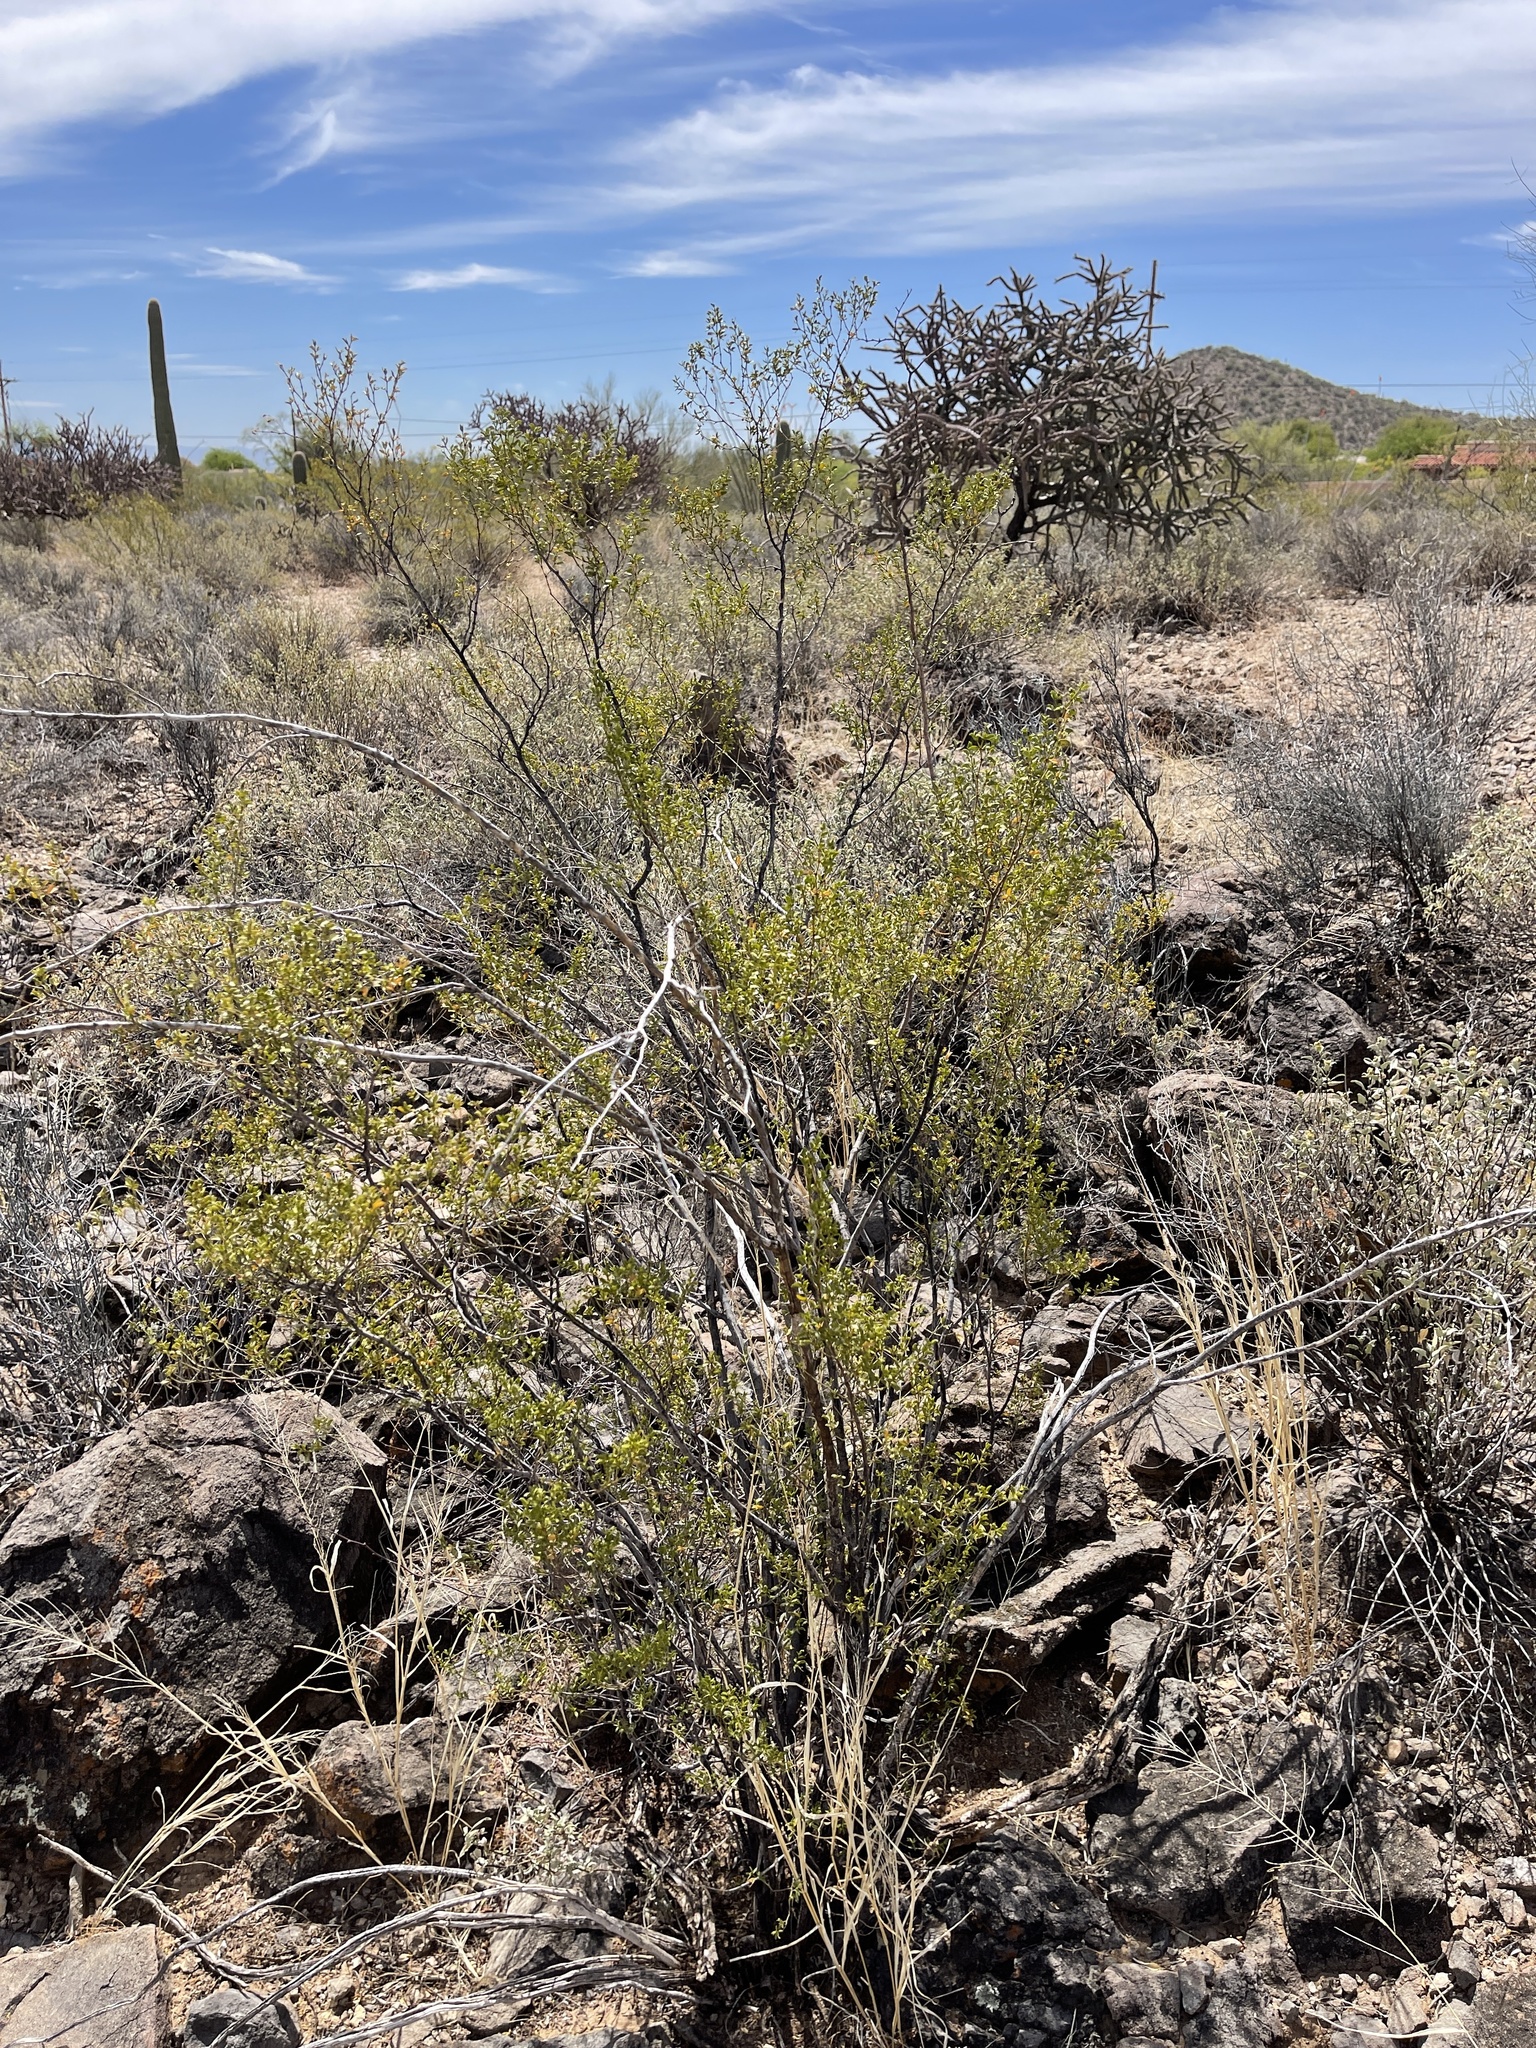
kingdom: Plantae
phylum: Tracheophyta
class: Magnoliopsida
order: Zygophyllales
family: Zygophyllaceae
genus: Larrea
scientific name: Larrea tridentata
